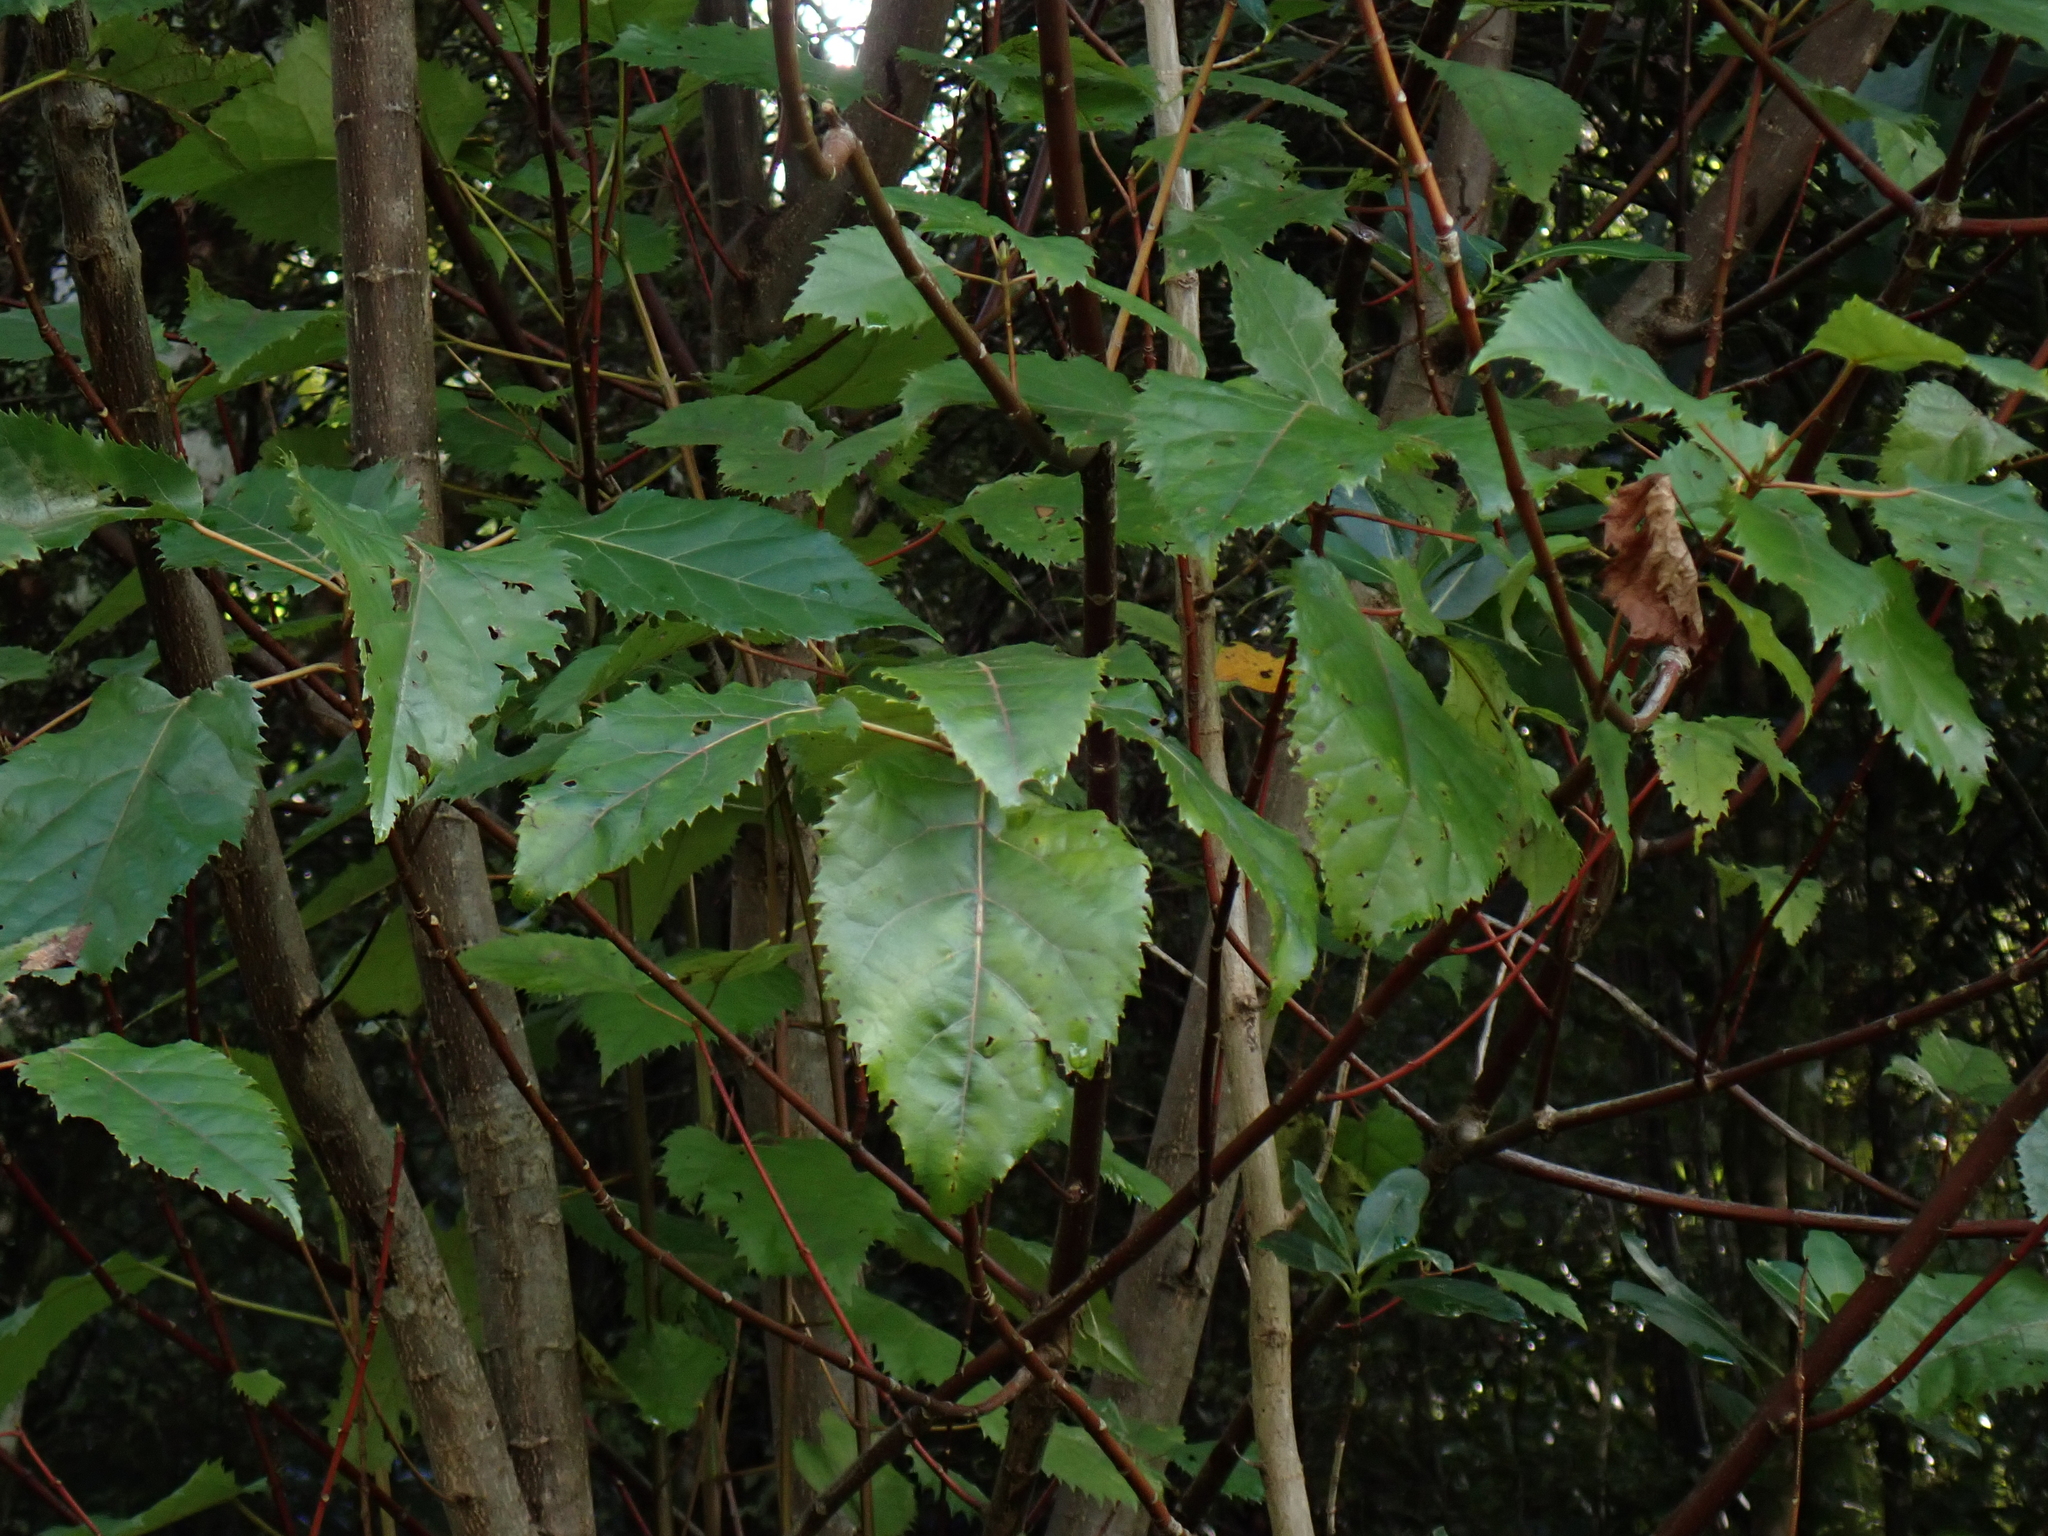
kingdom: Plantae
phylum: Tracheophyta
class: Magnoliopsida
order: Oxalidales
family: Elaeocarpaceae
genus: Aristotelia
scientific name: Aristotelia serrata
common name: New zealand wineberry
